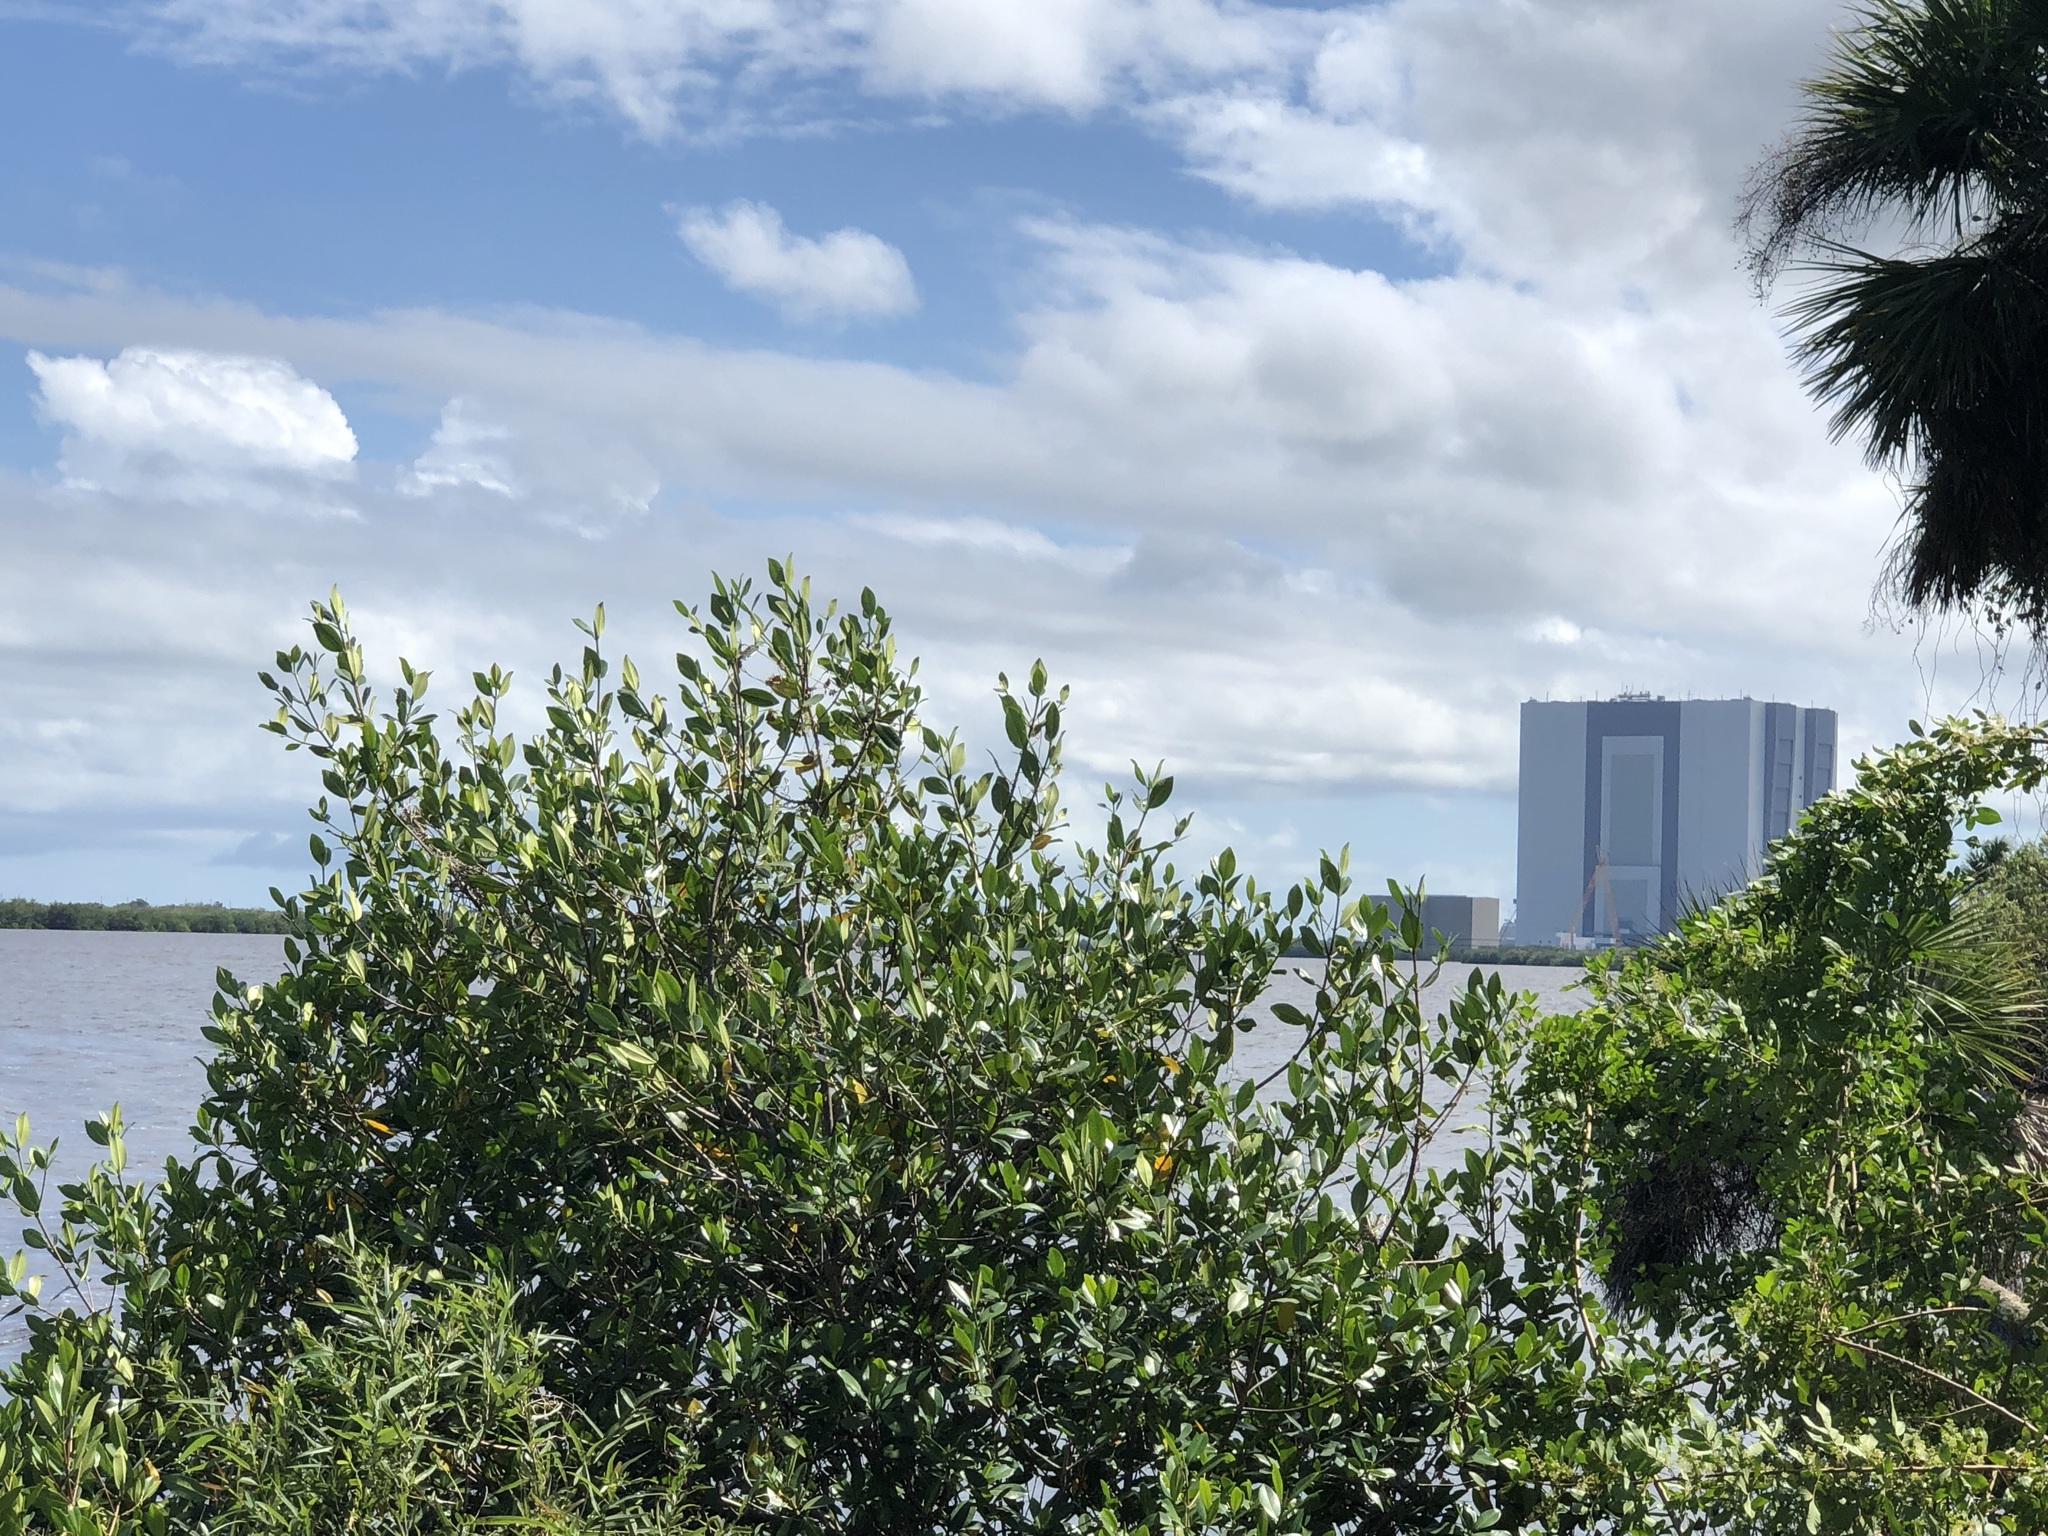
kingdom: Plantae
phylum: Tracheophyta
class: Magnoliopsida
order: Malpighiales
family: Rhizophoraceae
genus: Rhizophora
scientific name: Rhizophora mangle
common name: Red mangrove
